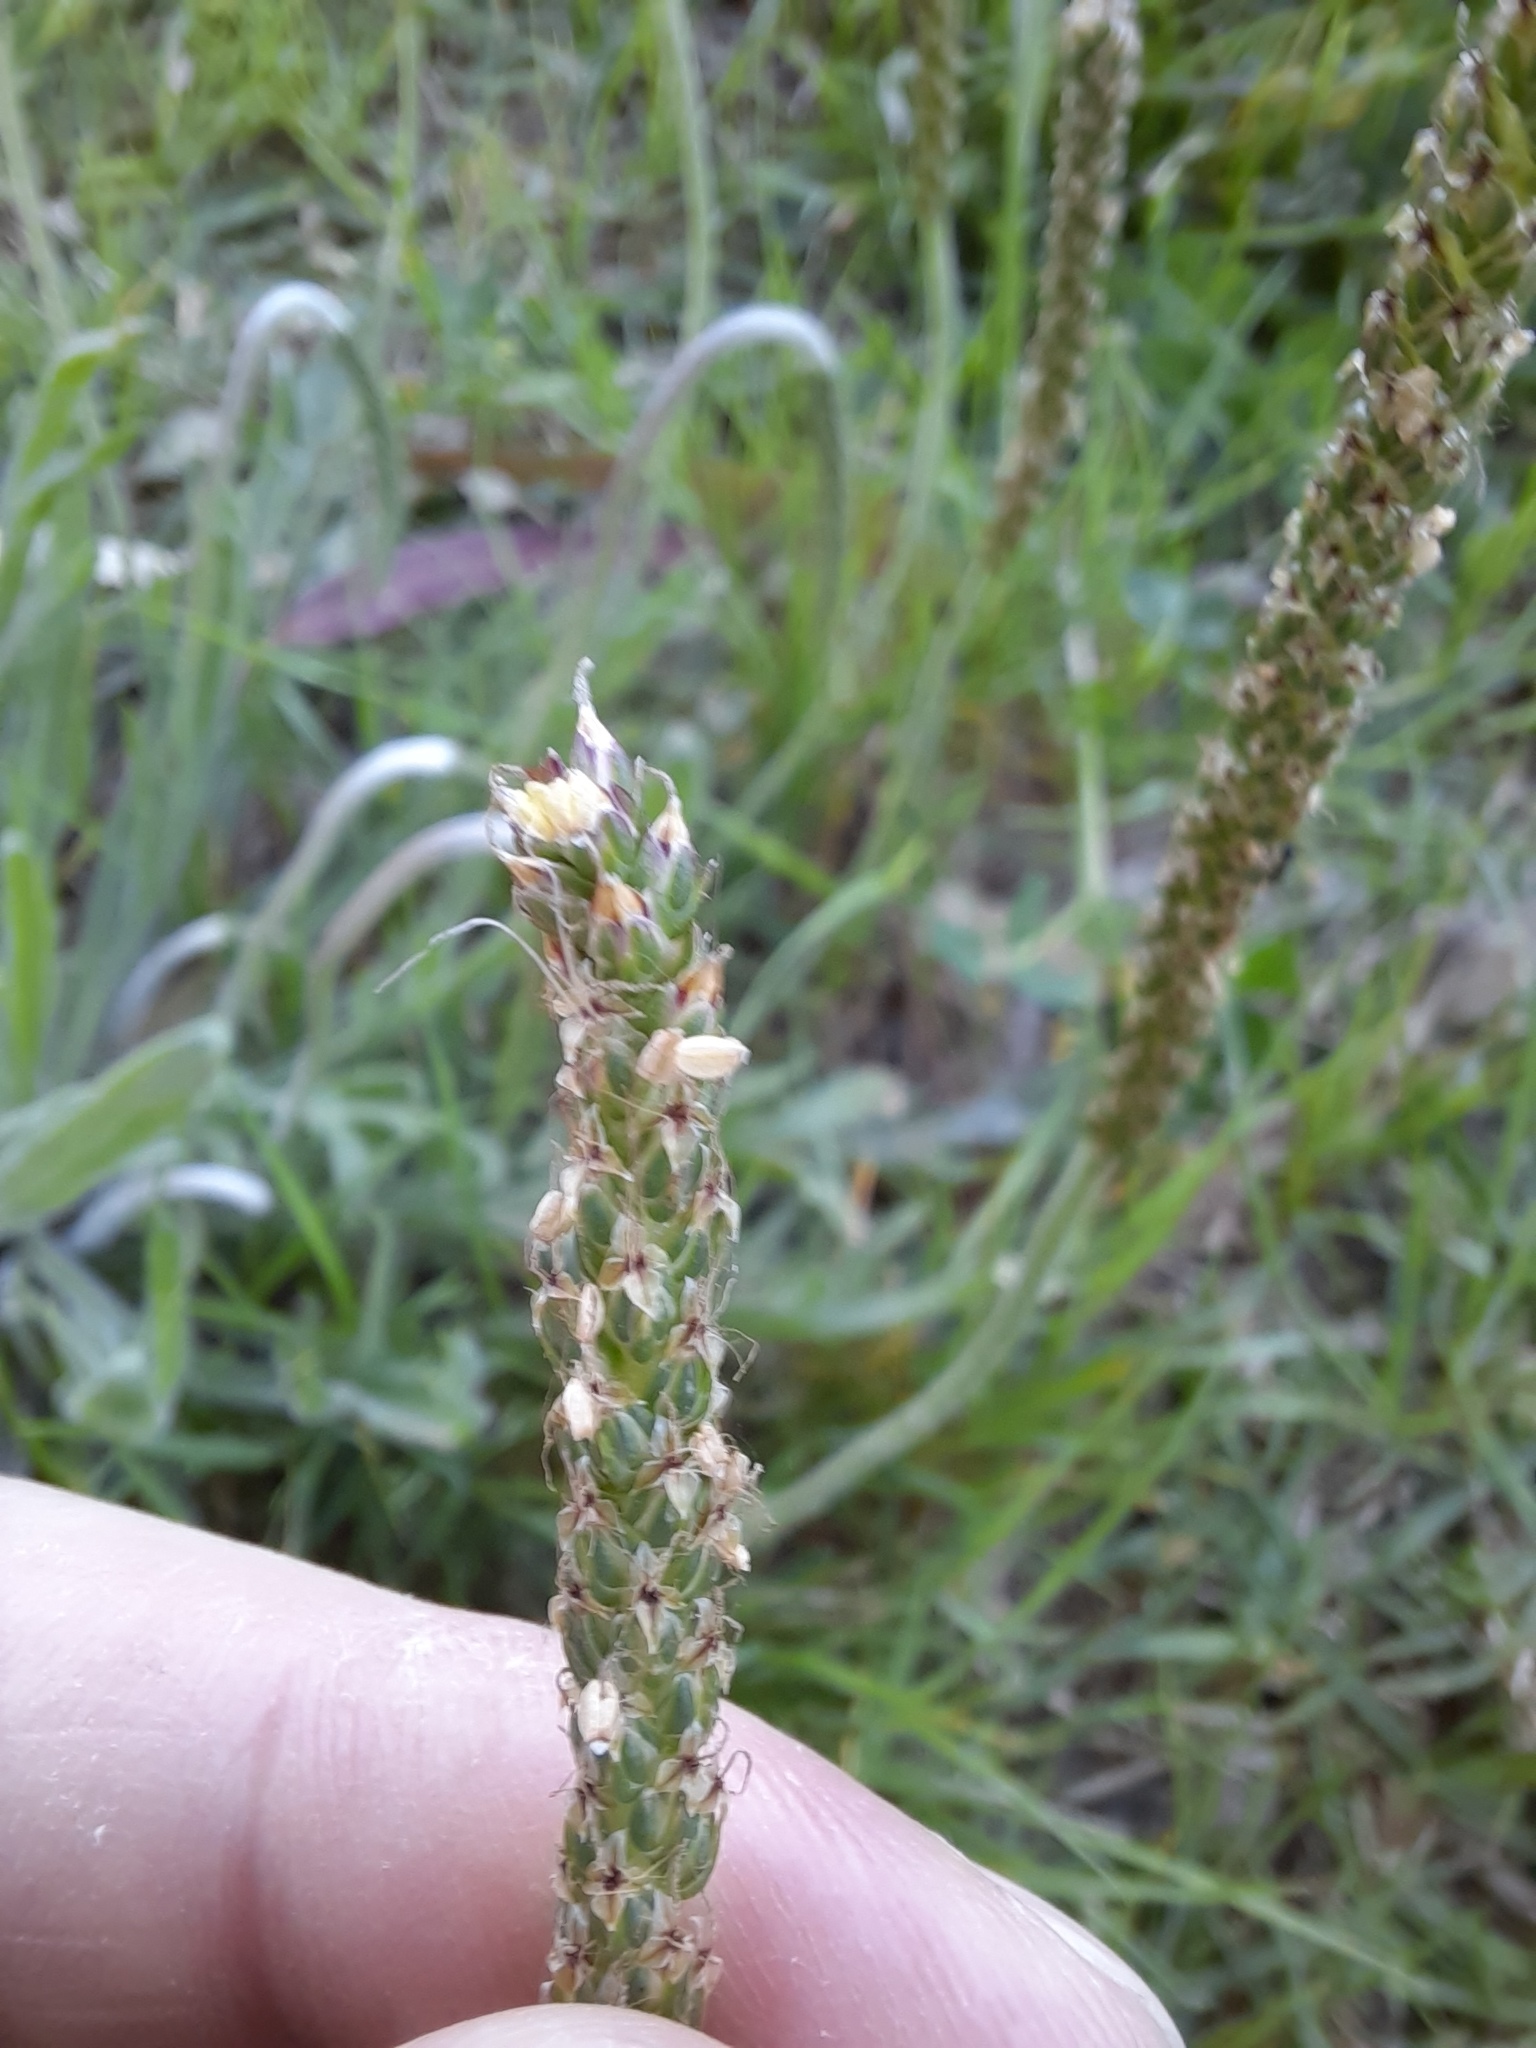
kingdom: Plantae
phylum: Tracheophyta
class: Magnoliopsida
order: Lamiales
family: Plantaginaceae
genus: Plantago
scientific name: Plantago coronopus
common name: Buck's-horn plantain
